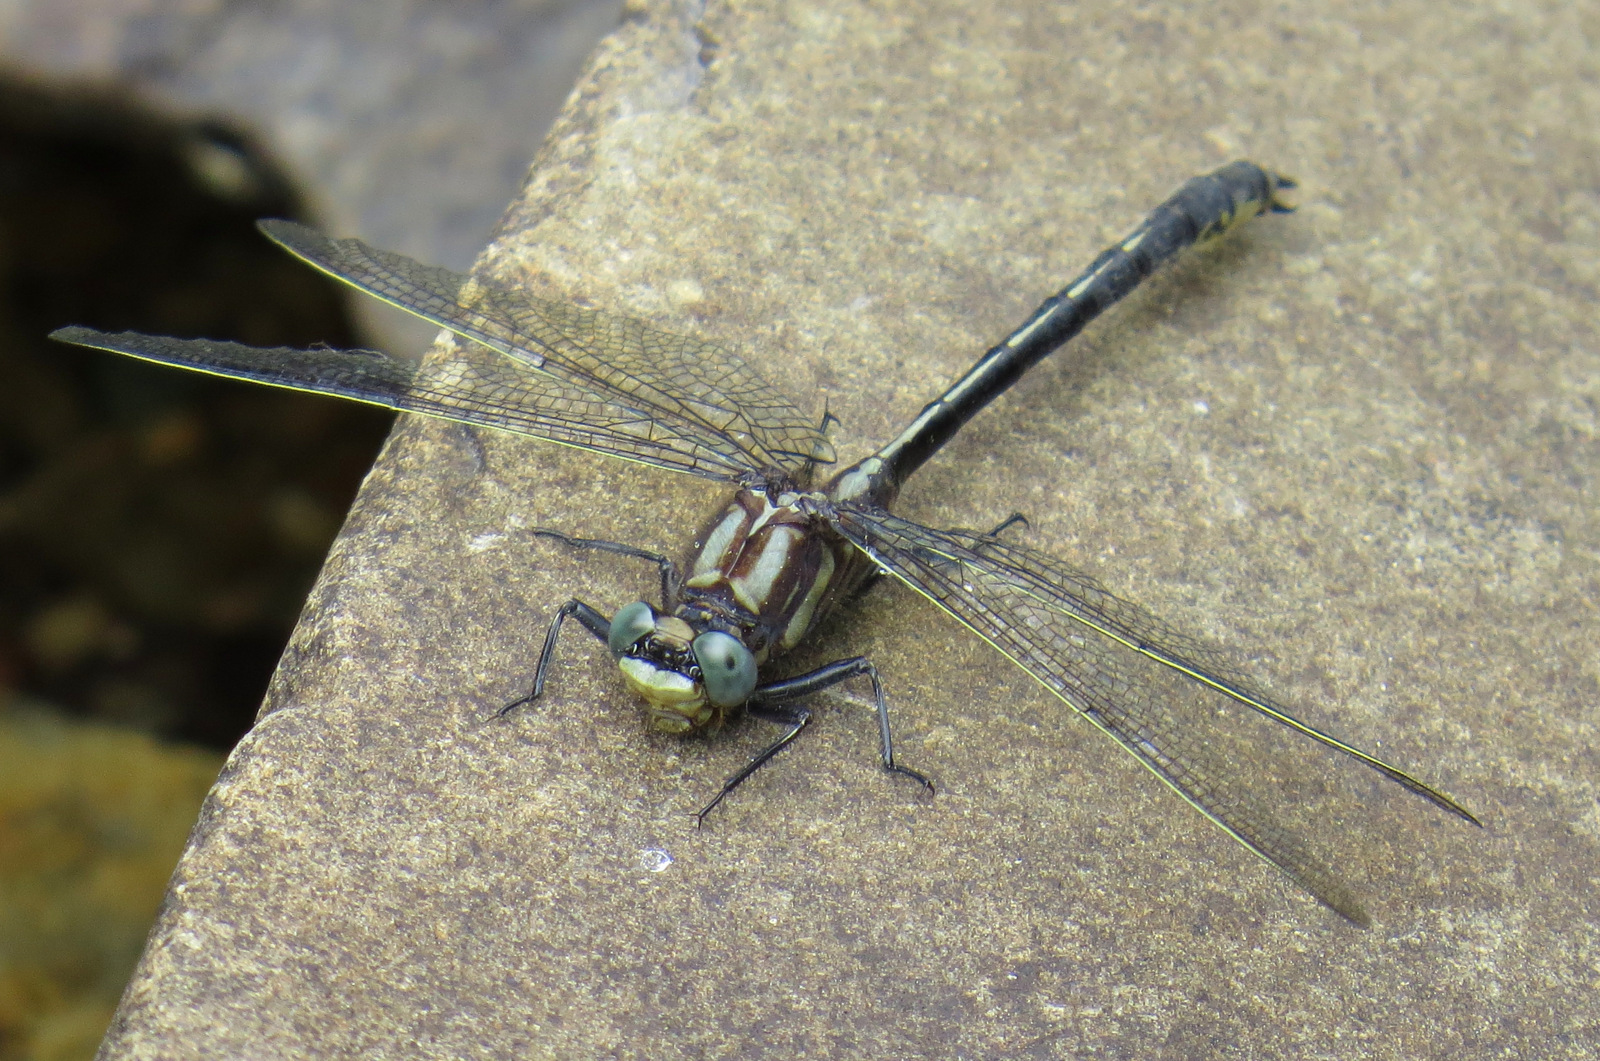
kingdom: Animalia
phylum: Arthropoda
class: Insecta
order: Odonata
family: Gomphidae
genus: Phanogomphus
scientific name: Phanogomphus descriptus
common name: Harpoon clubtail
